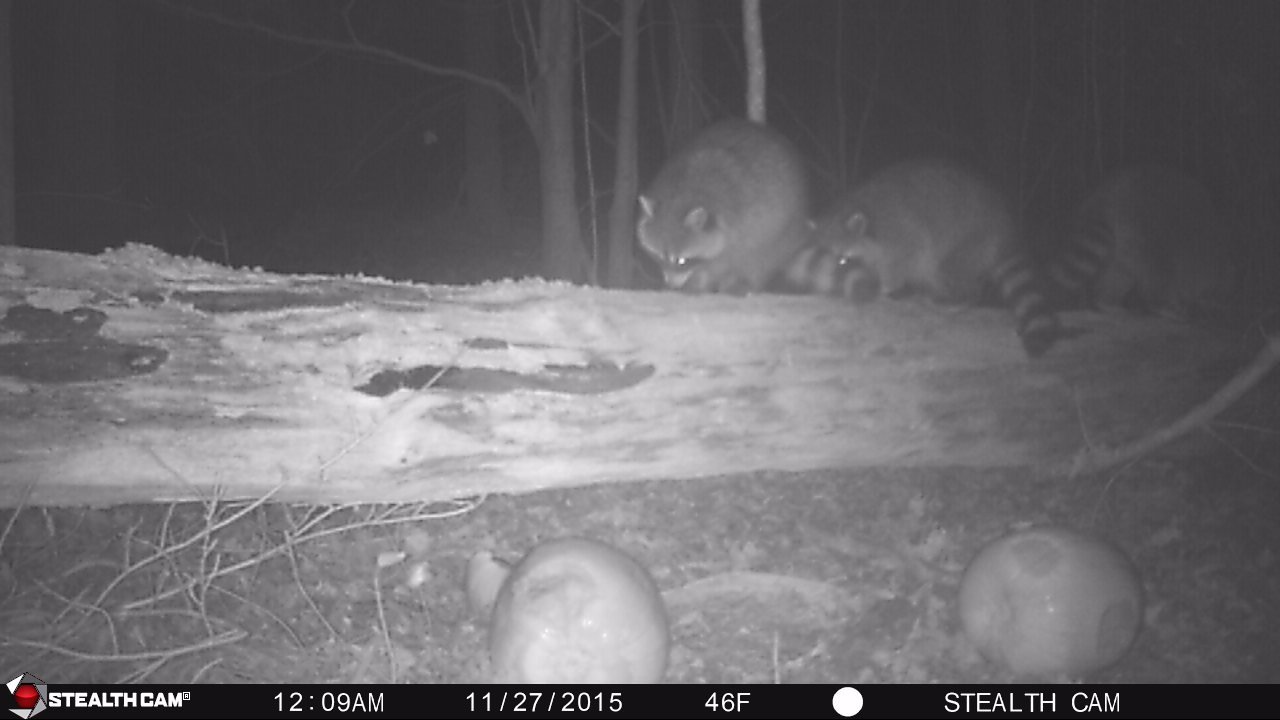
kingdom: Animalia
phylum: Chordata
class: Mammalia
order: Carnivora
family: Procyonidae
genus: Procyon
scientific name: Procyon lotor
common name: Raccoon
